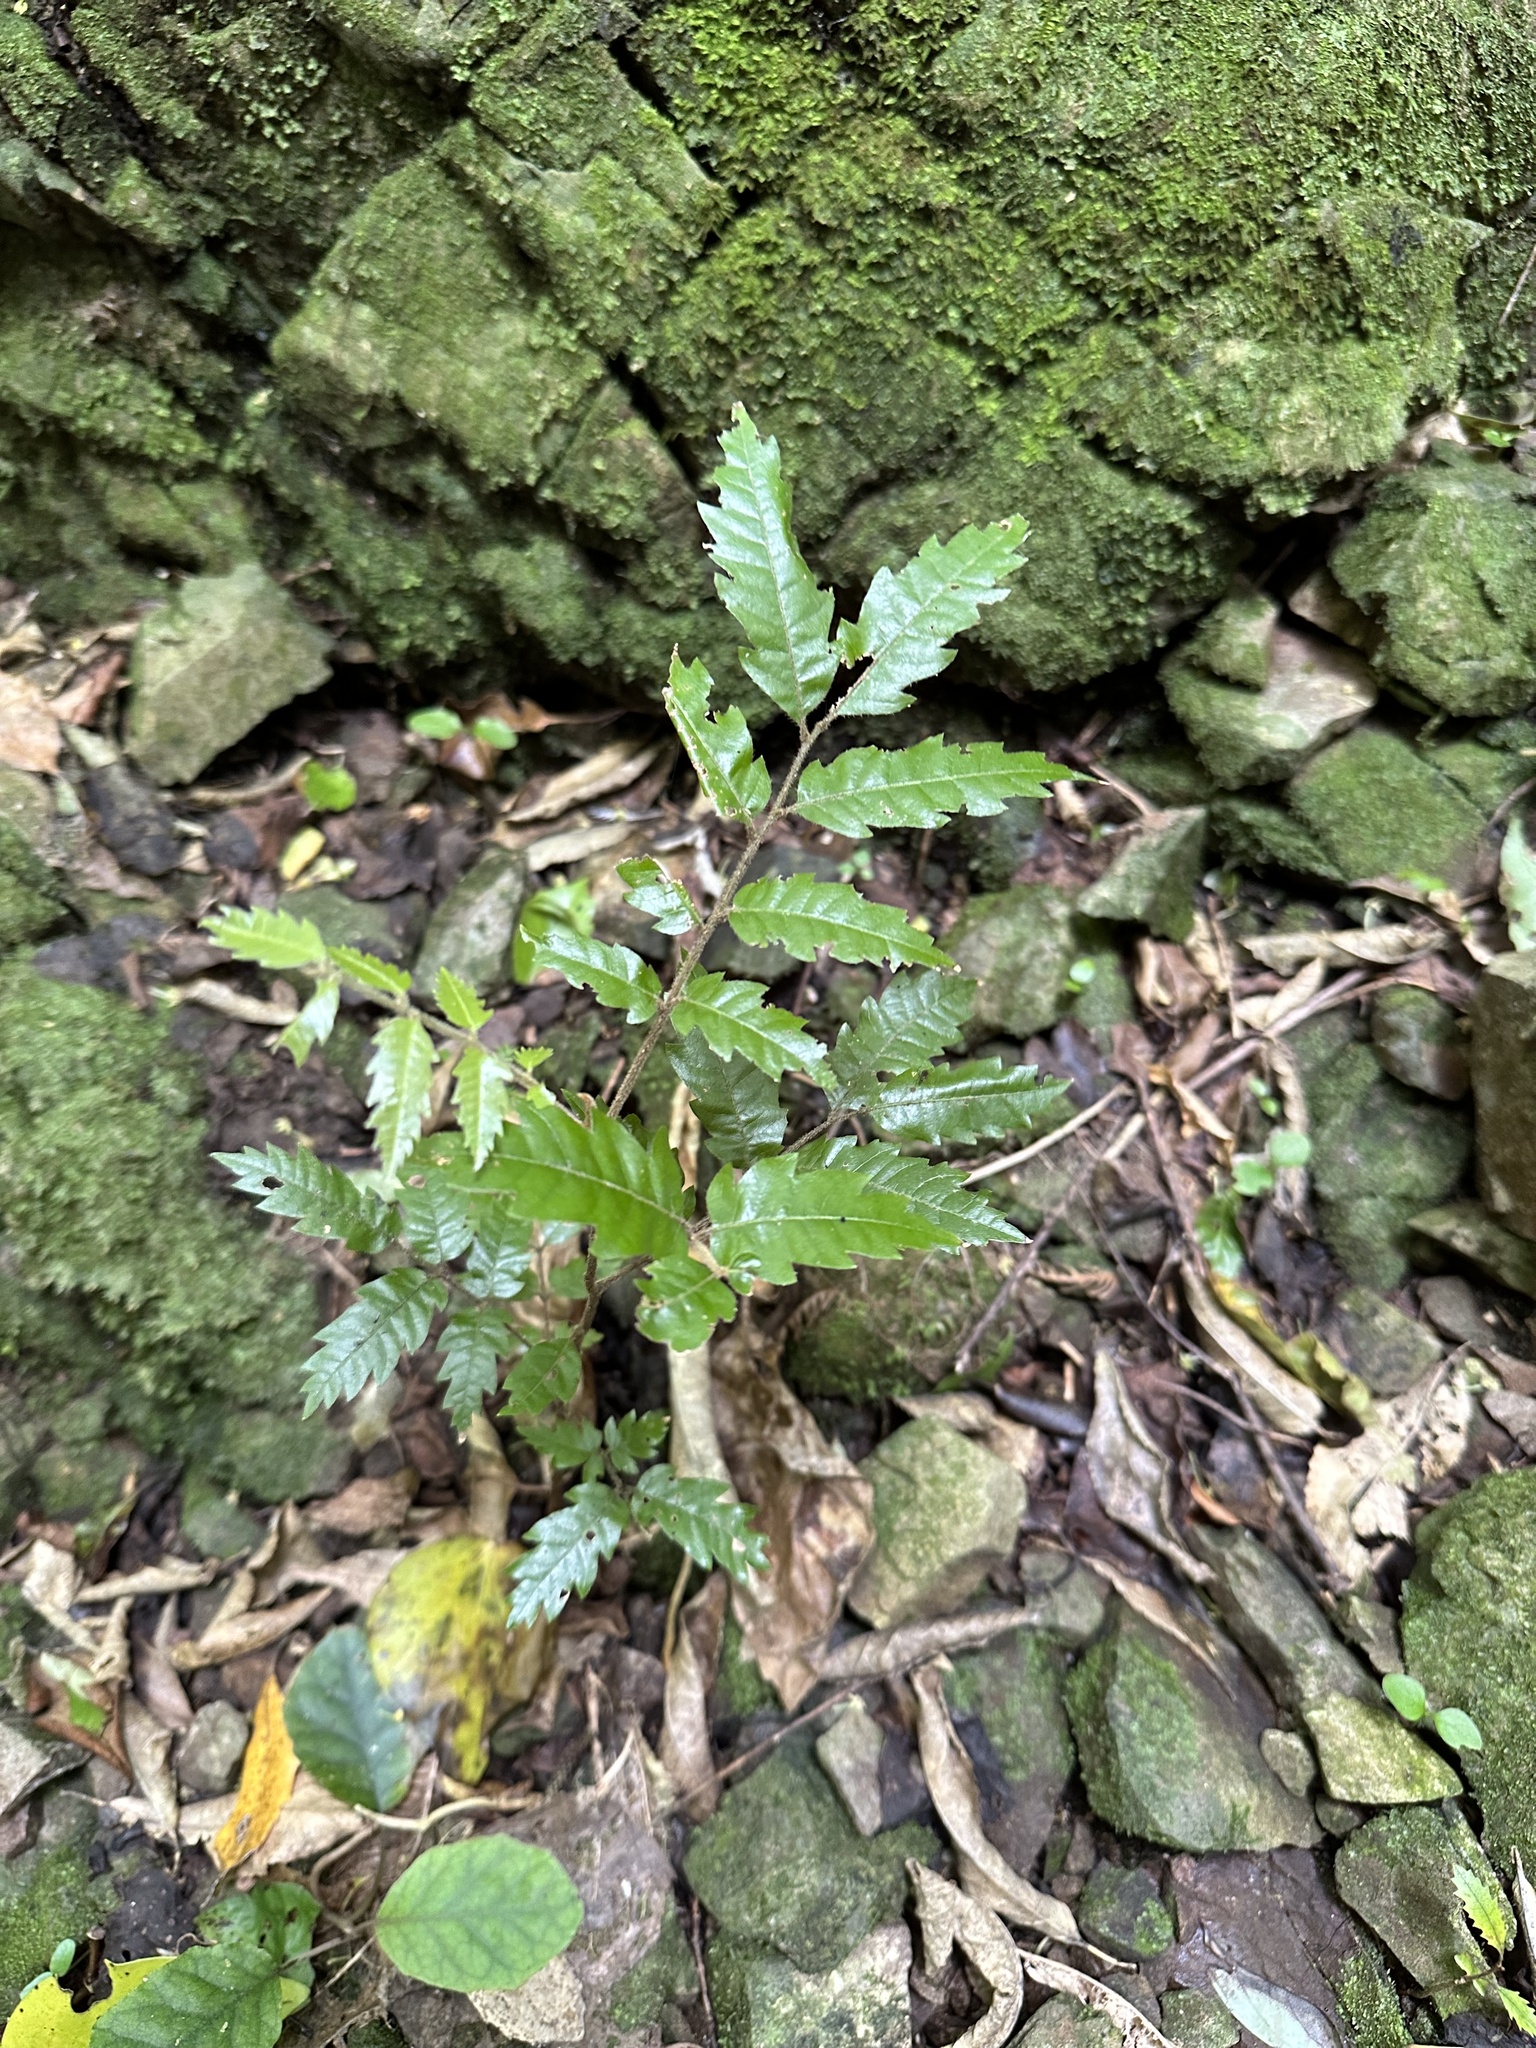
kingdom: Plantae
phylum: Tracheophyta
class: Magnoliopsida
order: Sapindales
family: Sapindaceae
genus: Alectryon
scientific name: Alectryon excelsus
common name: Three kings titoki
